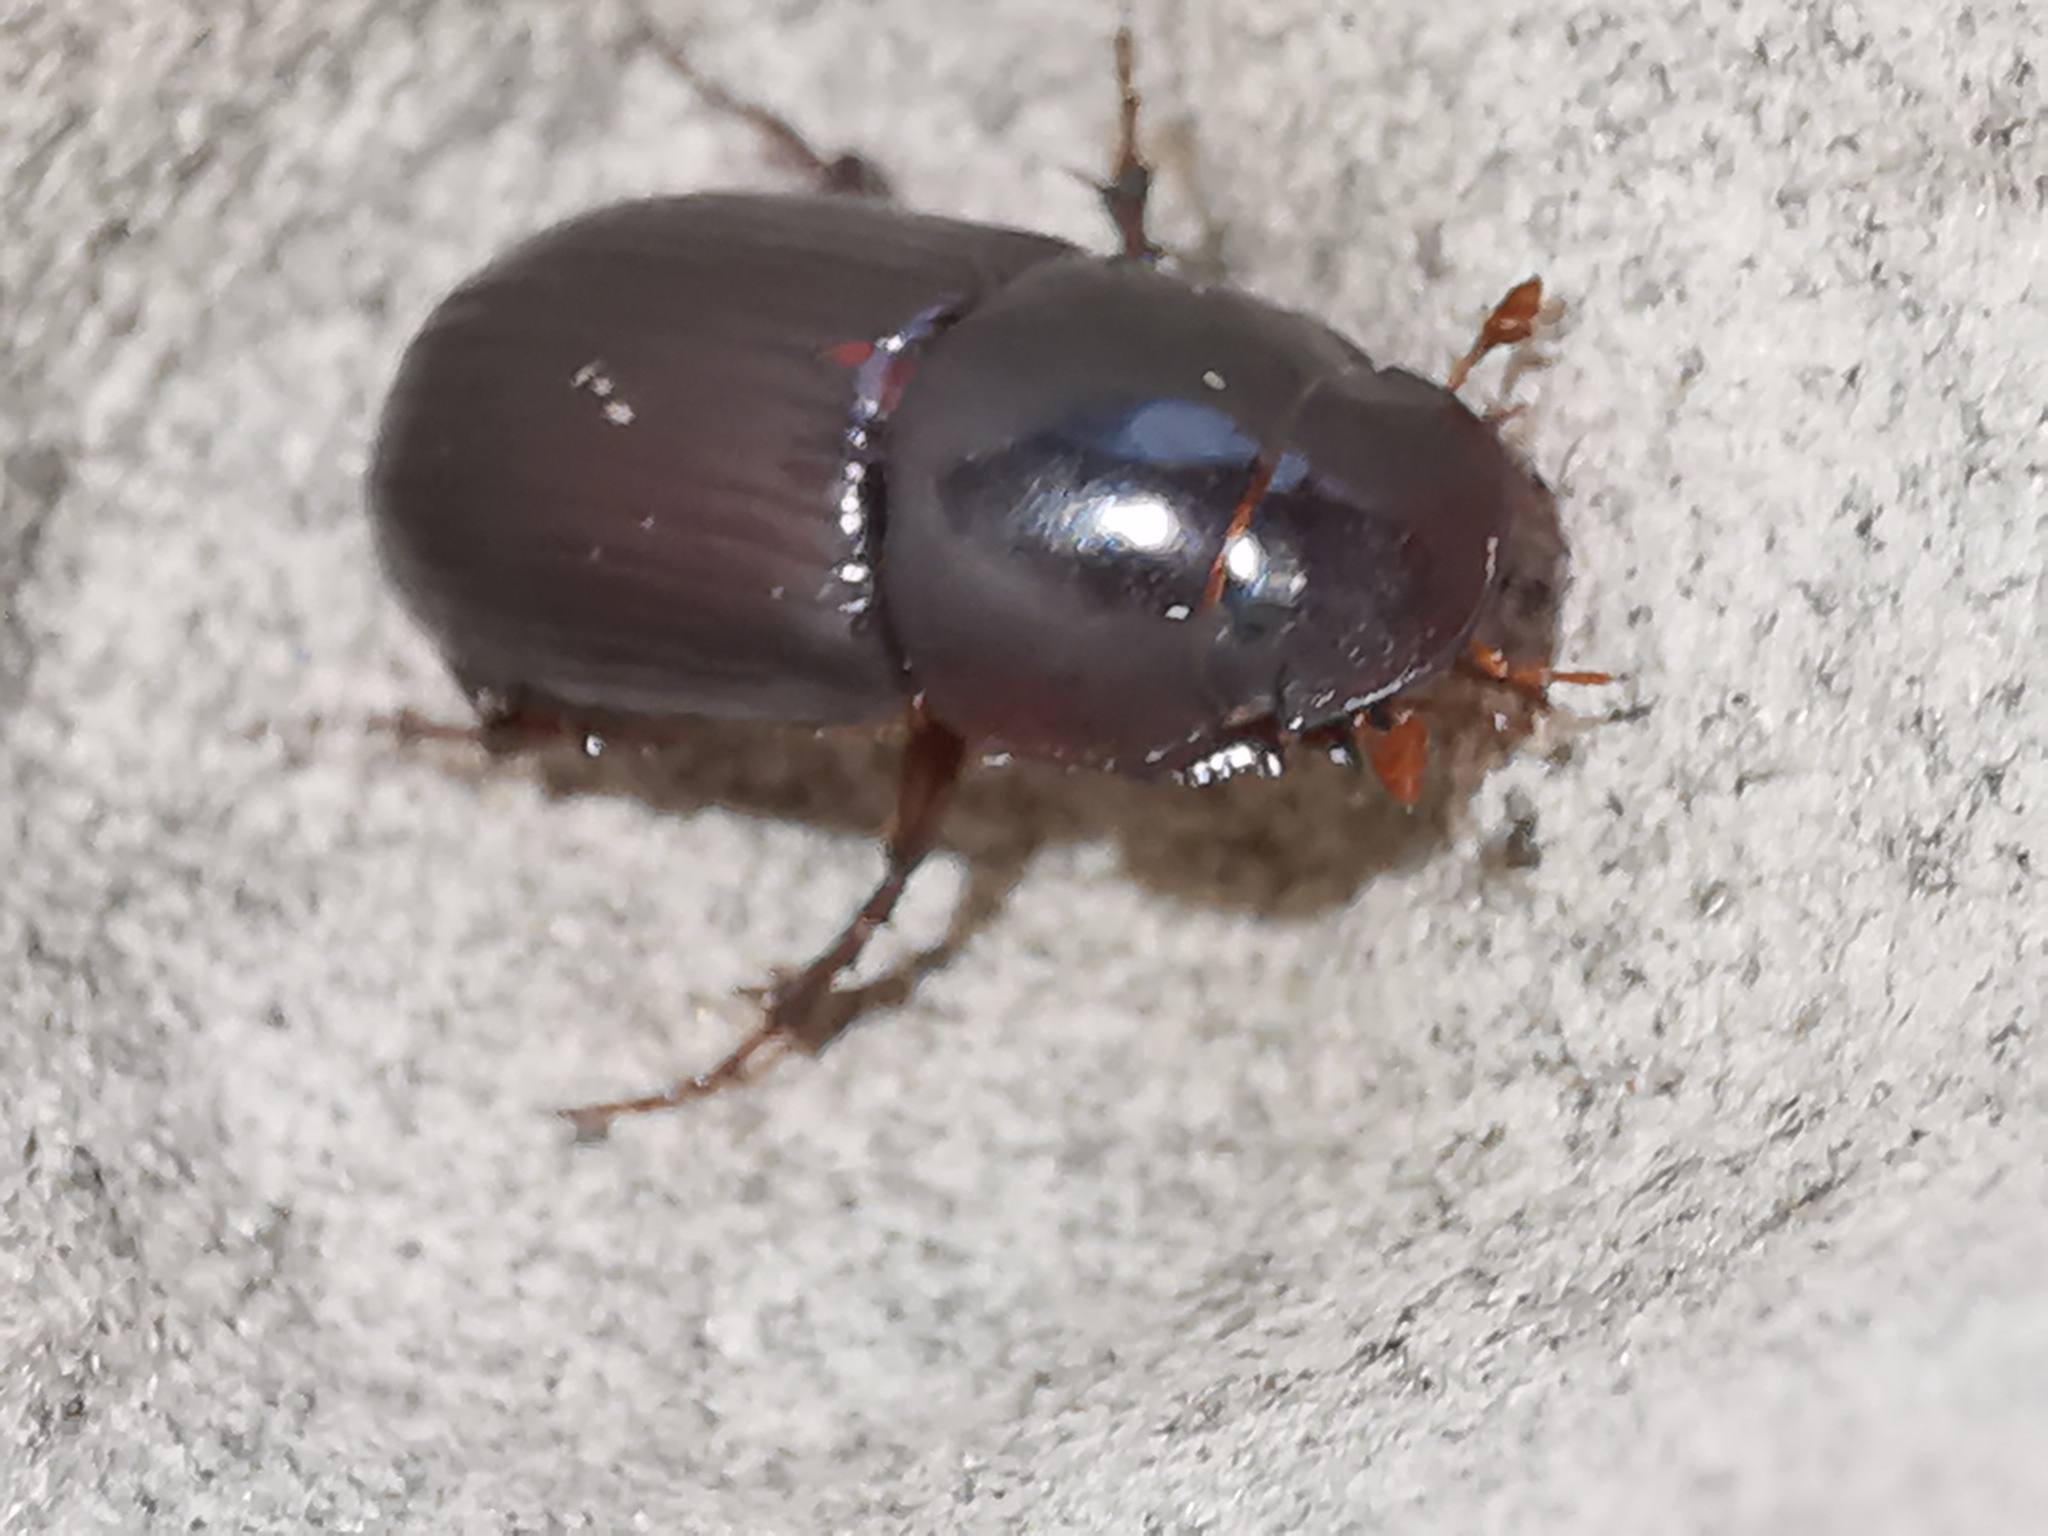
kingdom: Animalia
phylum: Arthropoda
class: Insecta
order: Coleoptera
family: Scarabaeidae
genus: Acrossus
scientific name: Acrossus rufipes
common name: Night-flying dung beetle
